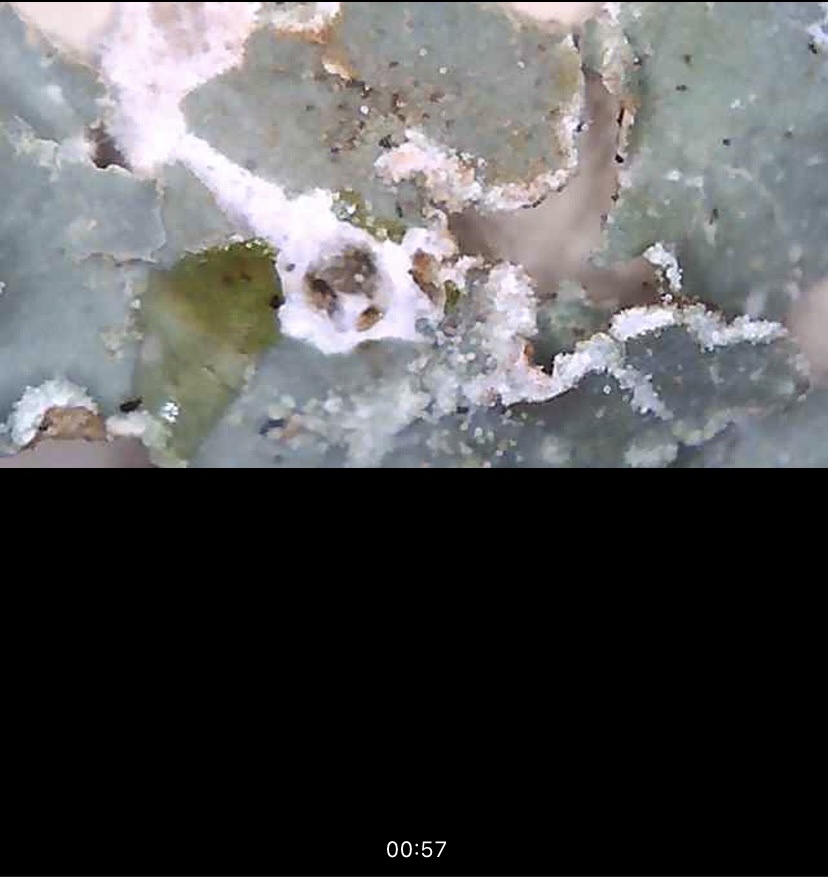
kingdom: Fungi
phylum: Ascomycota
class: Lecanoromycetes
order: Lecanorales
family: Parmeliaceae
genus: Punctelia
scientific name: Punctelia jeckeri
